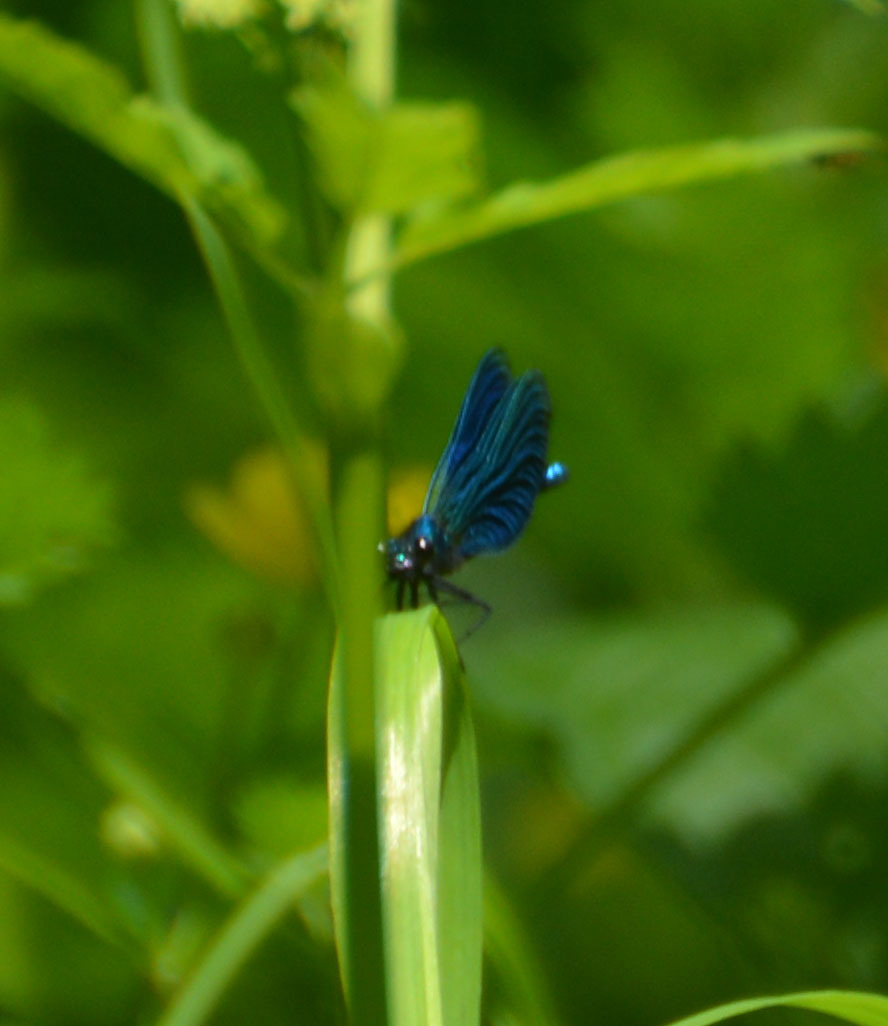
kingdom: Animalia
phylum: Arthropoda
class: Insecta
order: Odonata
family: Calopterygidae
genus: Calopteryx
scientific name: Calopteryx virgo
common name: Beautiful demoiselle
